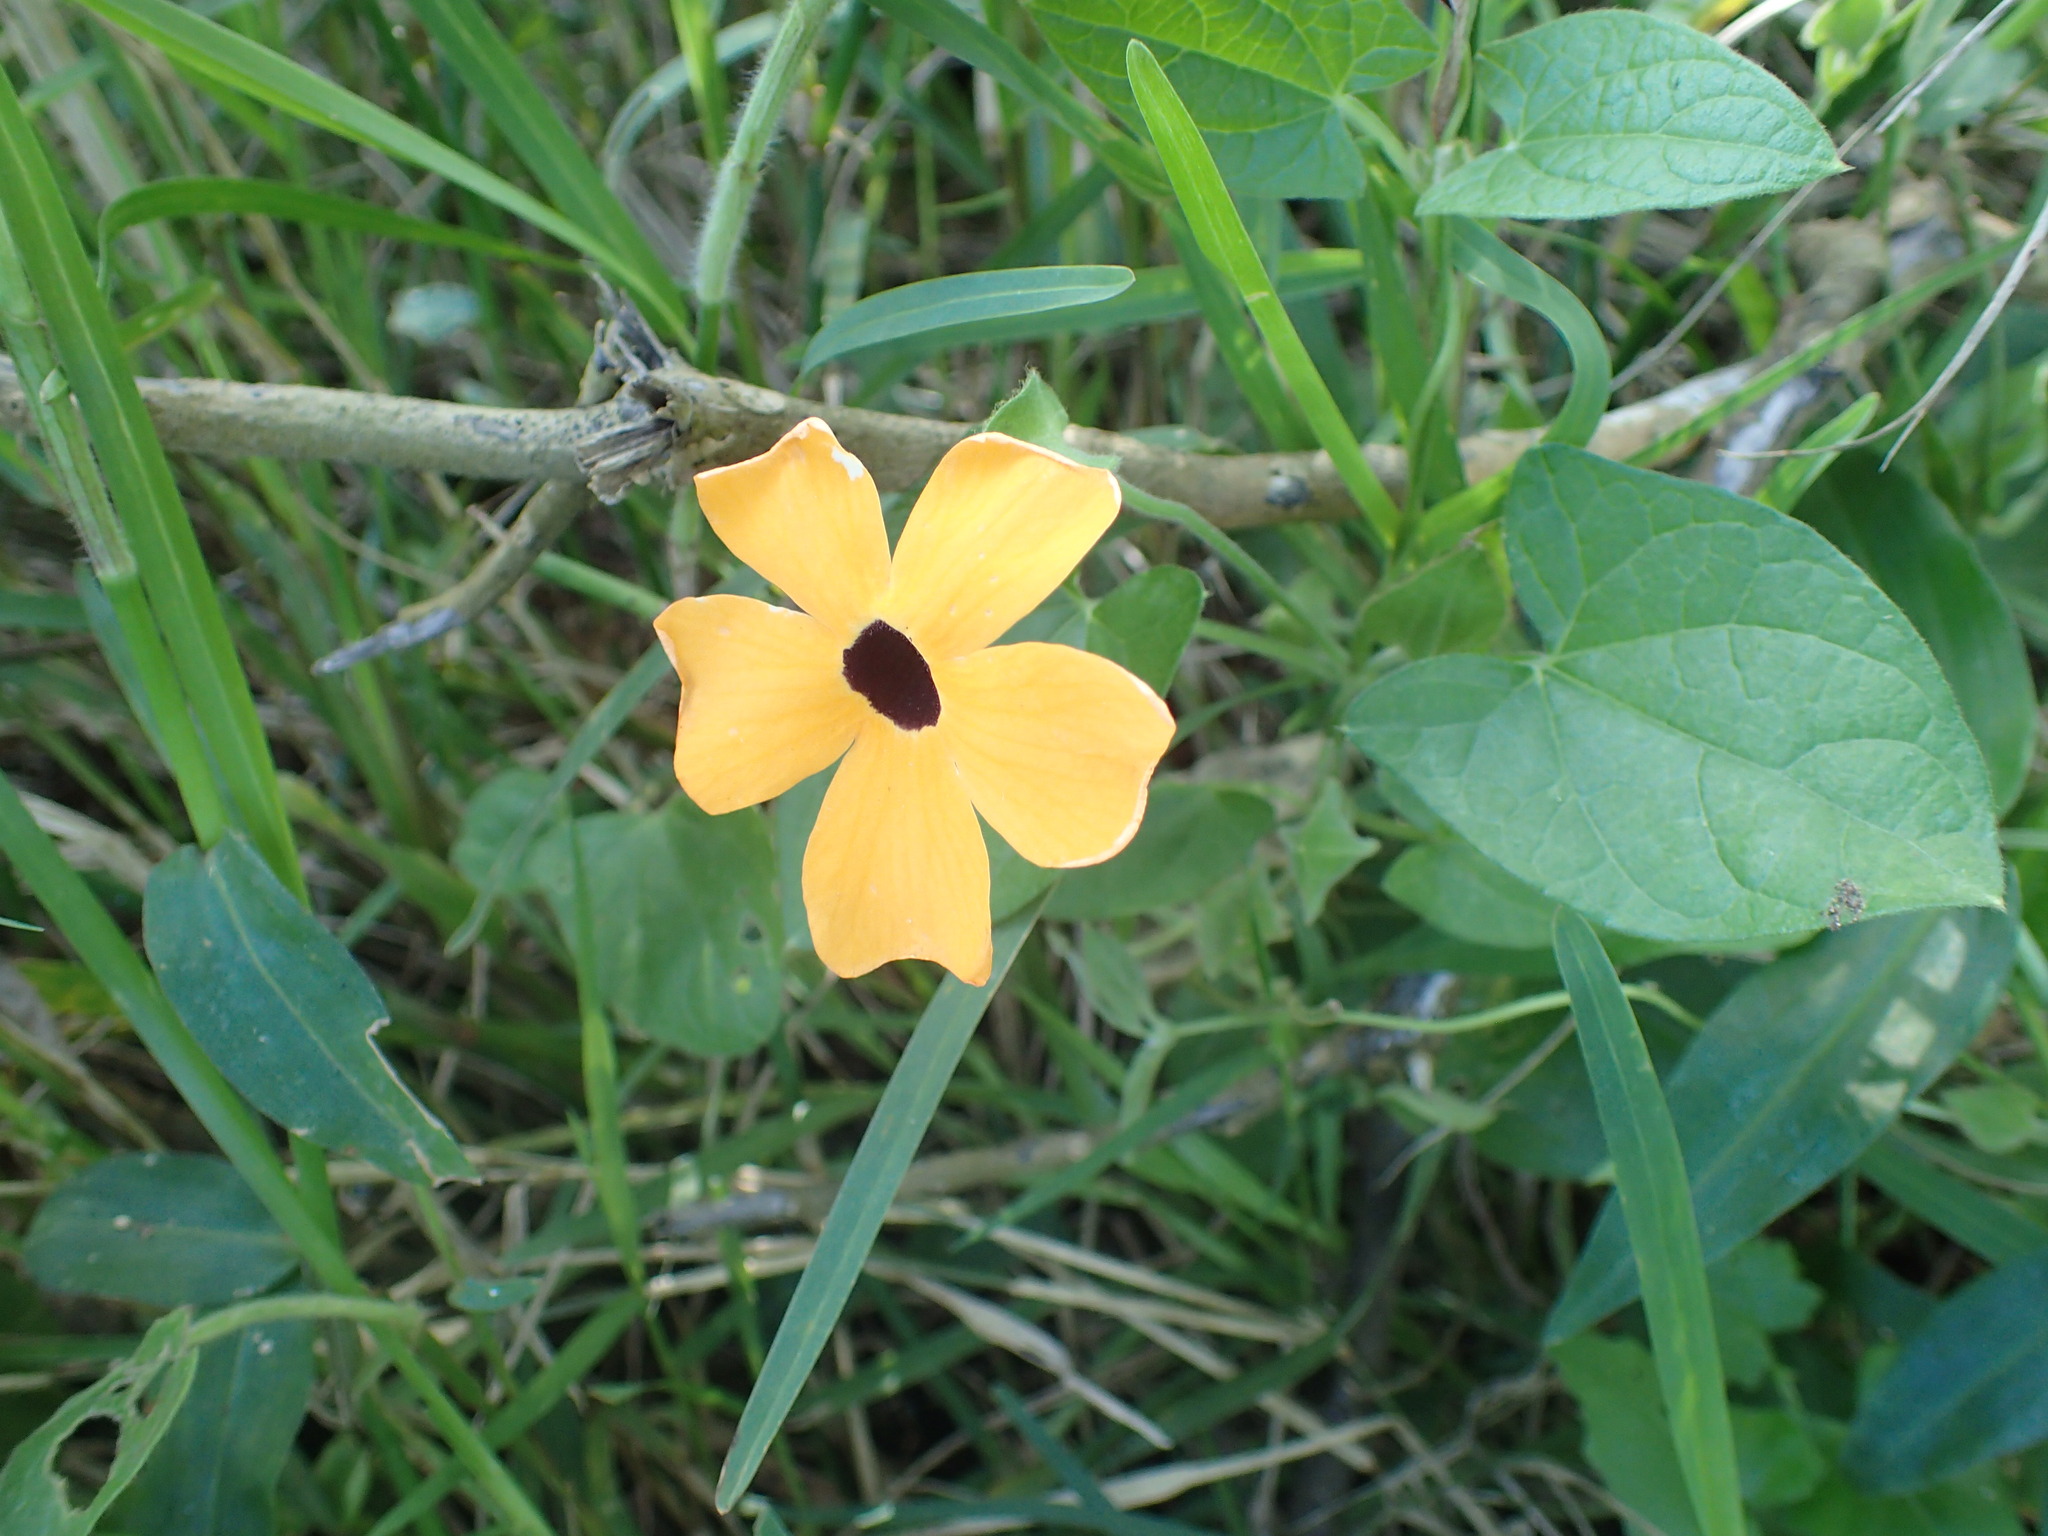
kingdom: Plantae
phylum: Tracheophyta
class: Magnoliopsida
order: Lamiales
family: Acanthaceae
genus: Thunbergia
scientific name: Thunbergia alata
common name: Blackeyed susan vine
